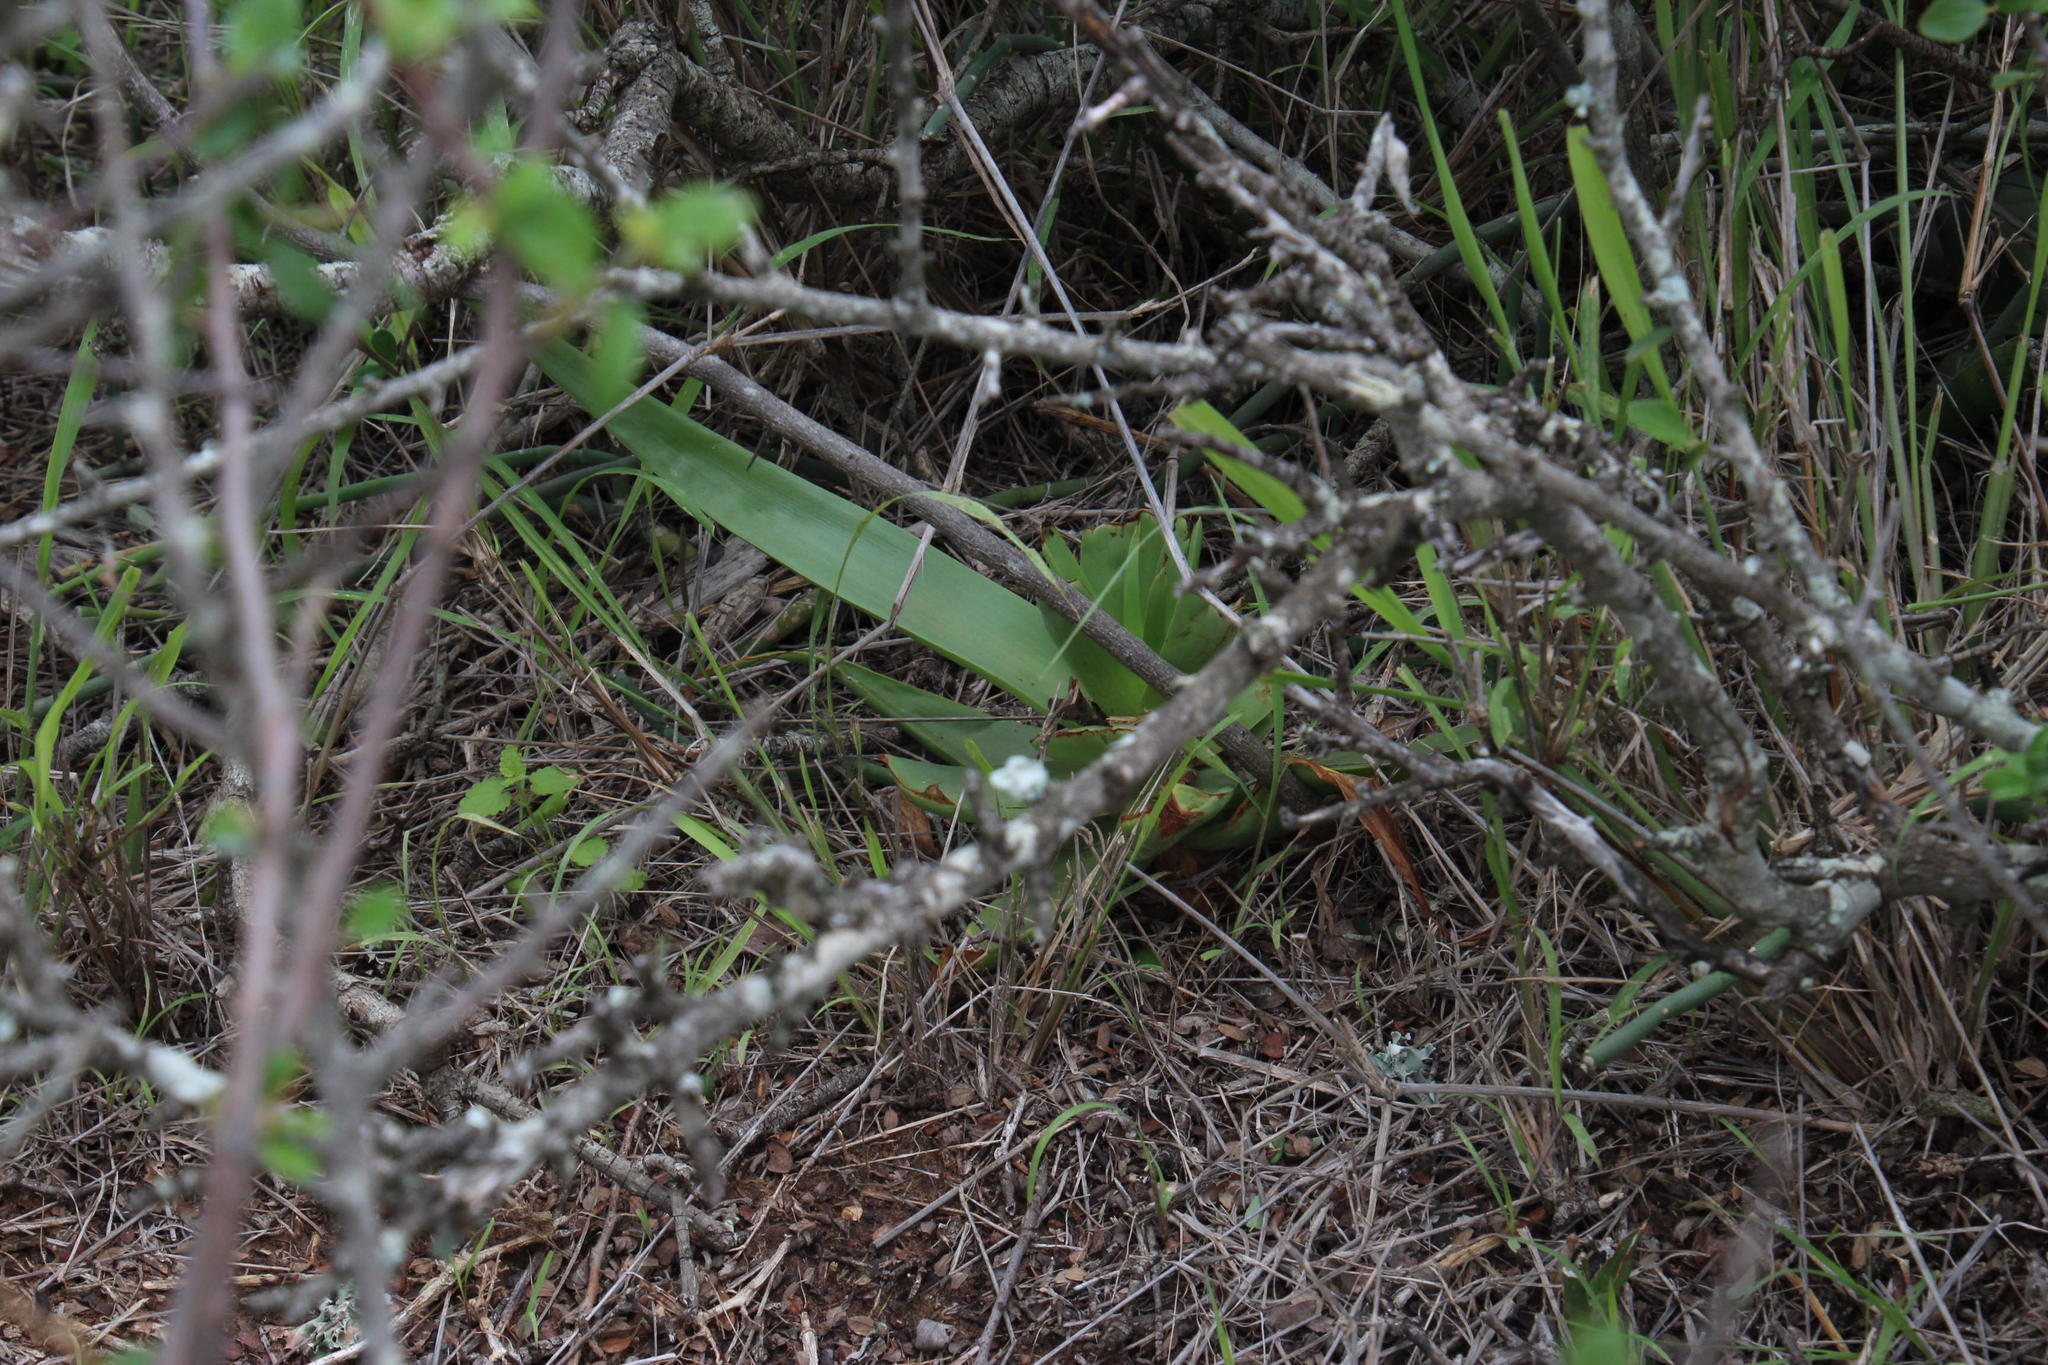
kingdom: Plantae
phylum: Tracheophyta
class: Liliopsida
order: Asparagales
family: Asphodelaceae
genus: Bulbine
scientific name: Bulbine latifolia
